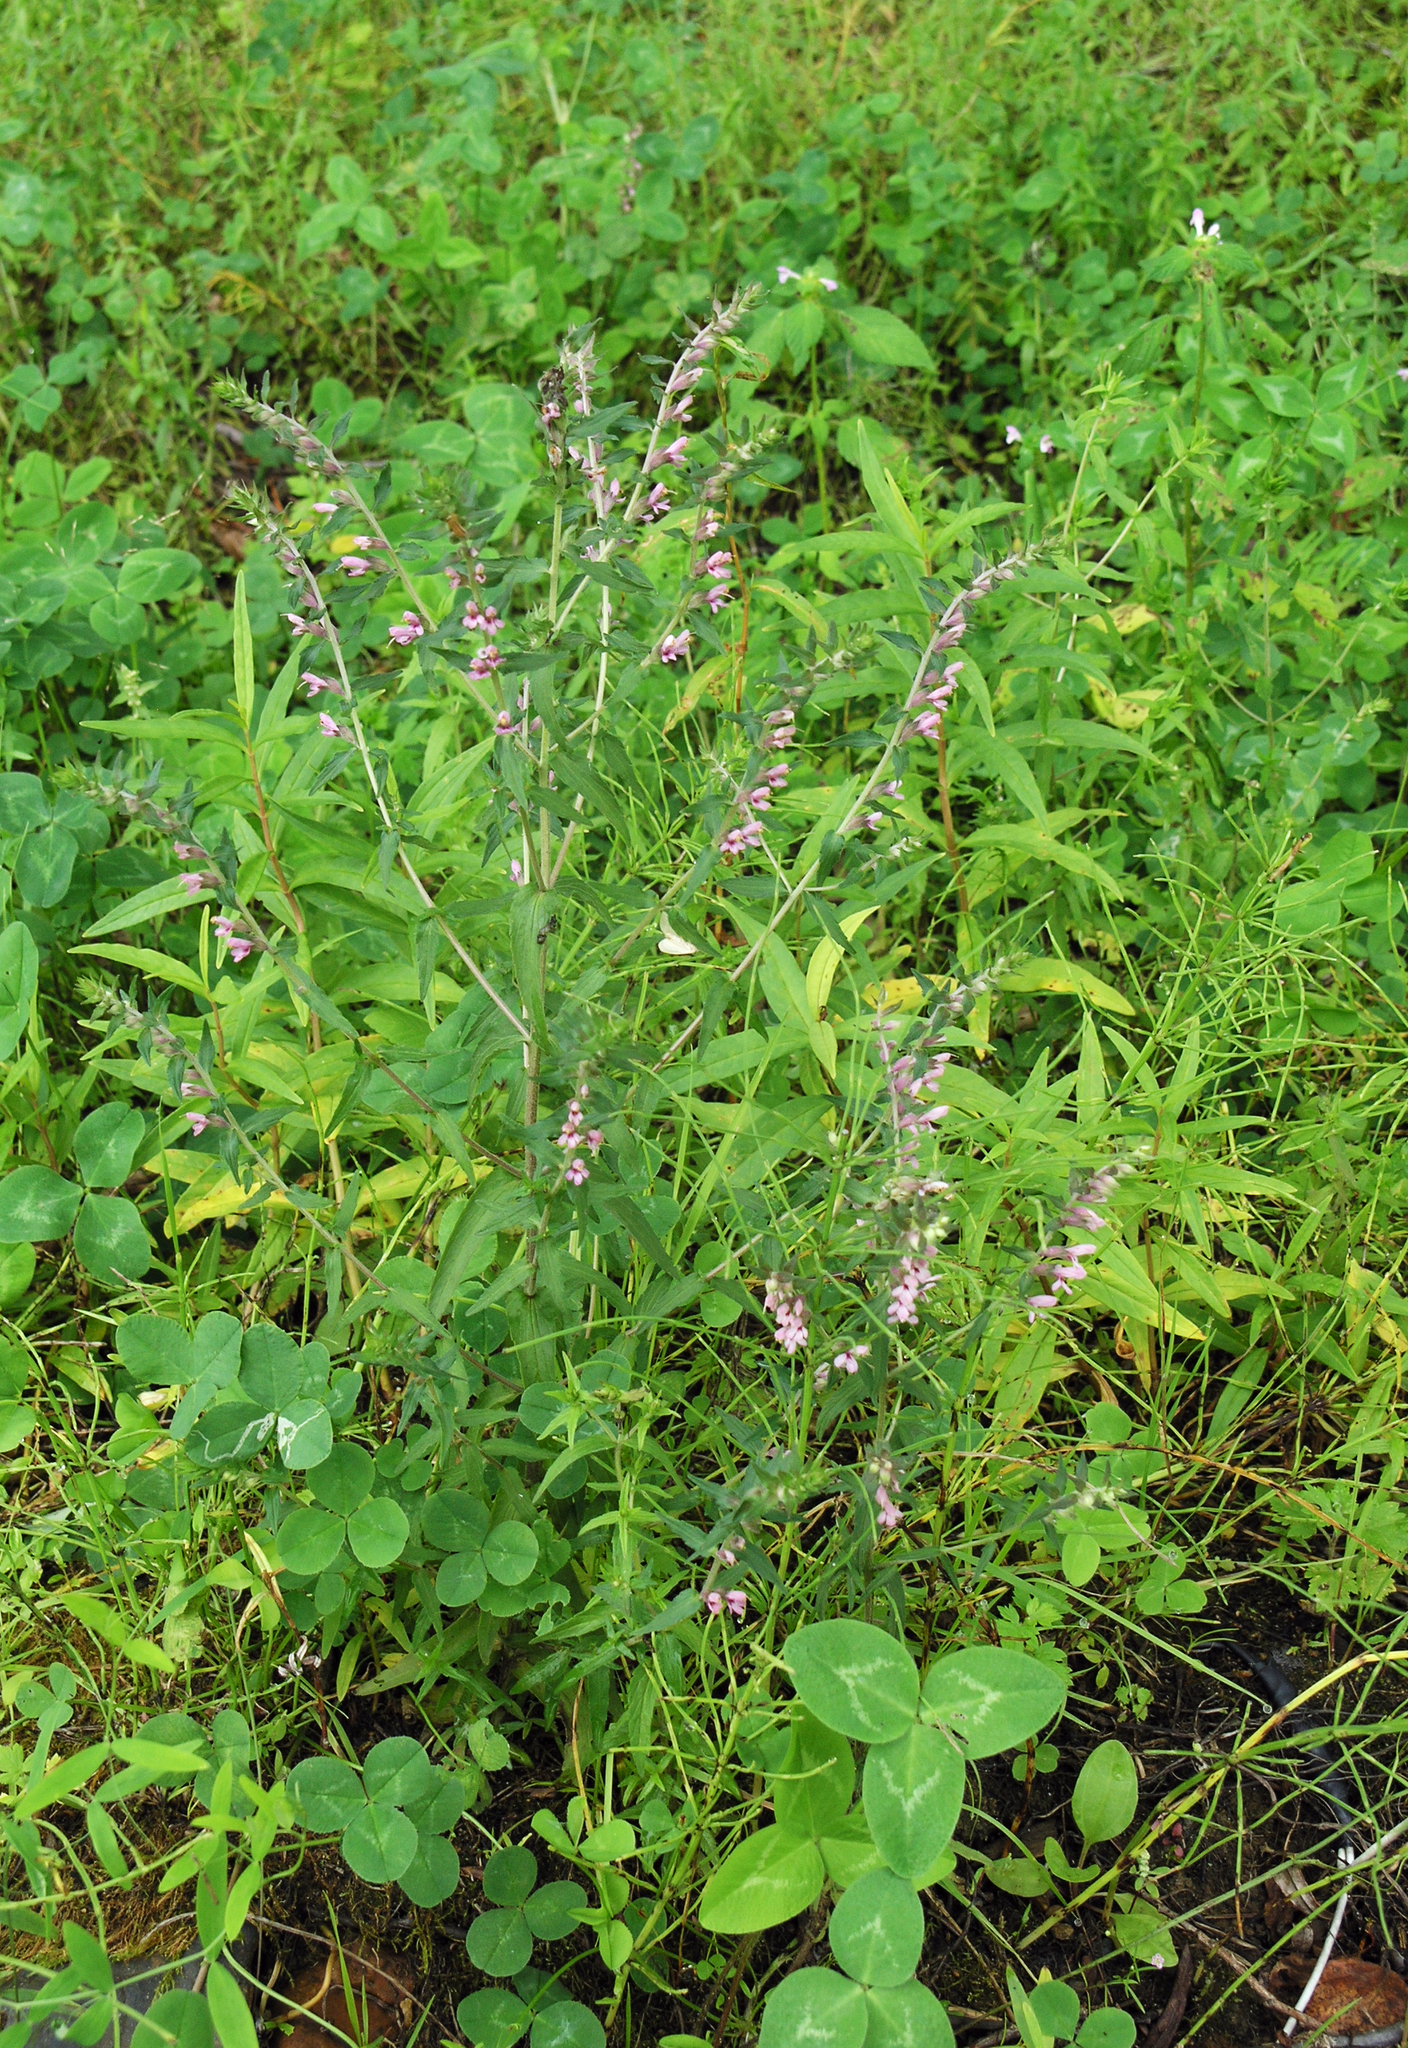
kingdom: Plantae
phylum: Tracheophyta
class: Magnoliopsida
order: Lamiales
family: Orobanchaceae
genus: Odontites
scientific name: Odontites vulgaris
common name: Broomrape
